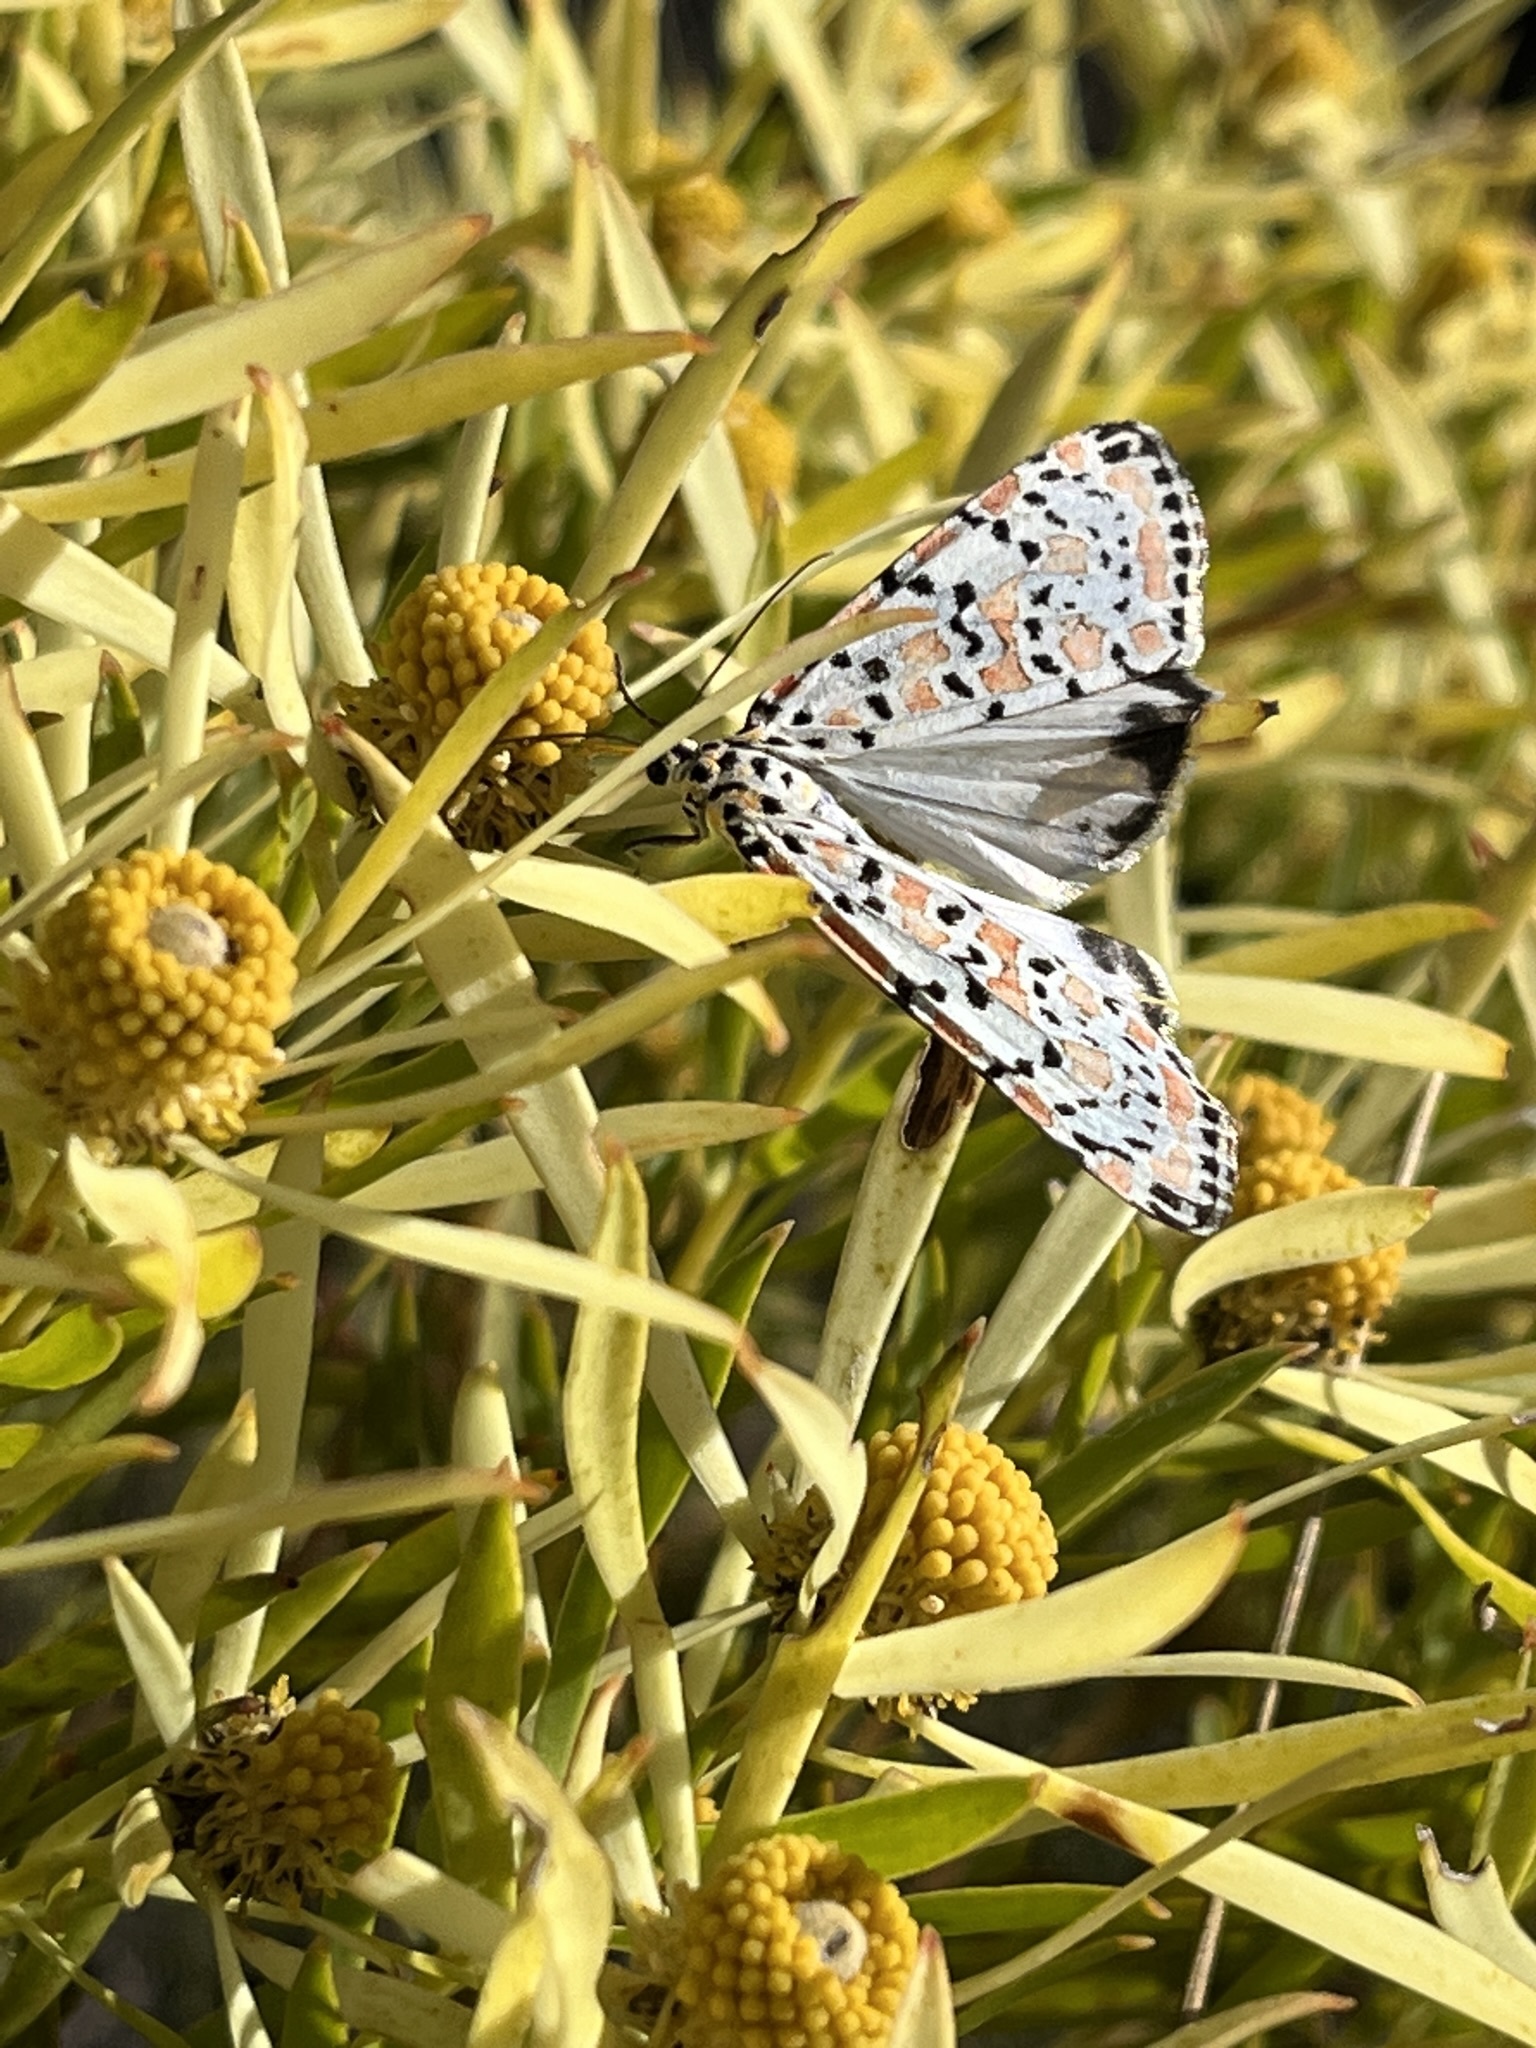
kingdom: Animalia
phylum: Arthropoda
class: Insecta
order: Lepidoptera
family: Erebidae
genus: Utetheisa
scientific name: Utetheisa pulchella
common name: Crimson speckled
